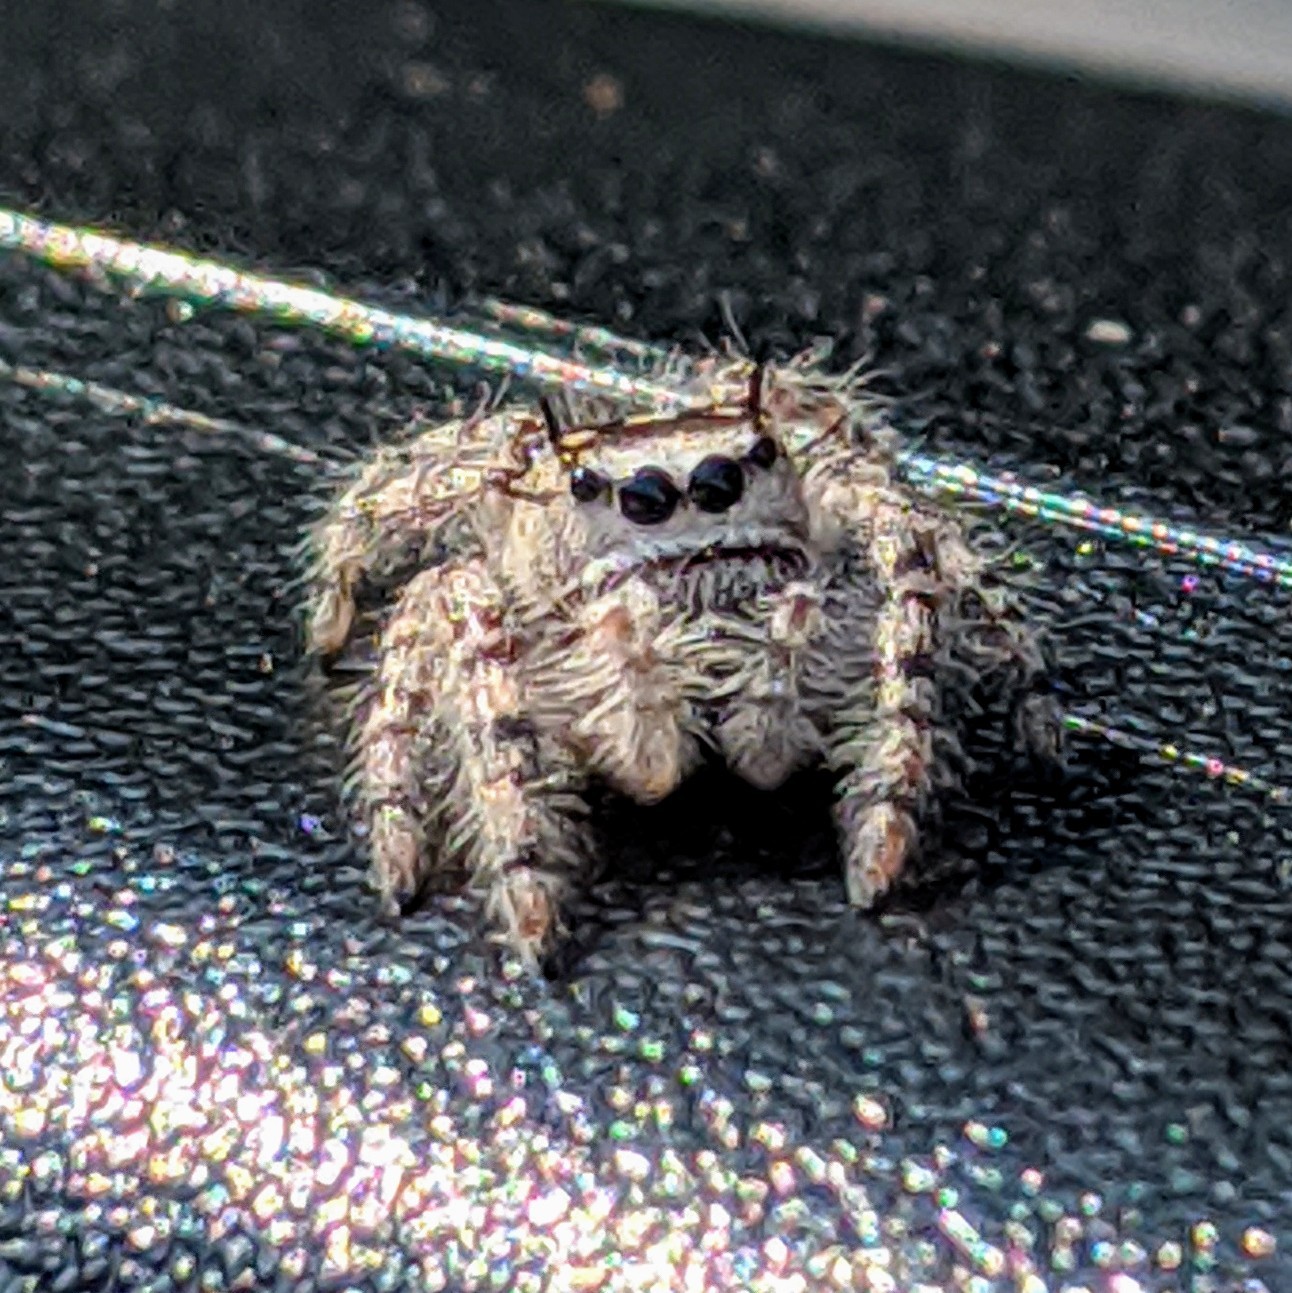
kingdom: Animalia
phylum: Arthropoda
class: Arachnida
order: Araneae
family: Salticidae
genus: Phidippus
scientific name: Phidippus otiosus
